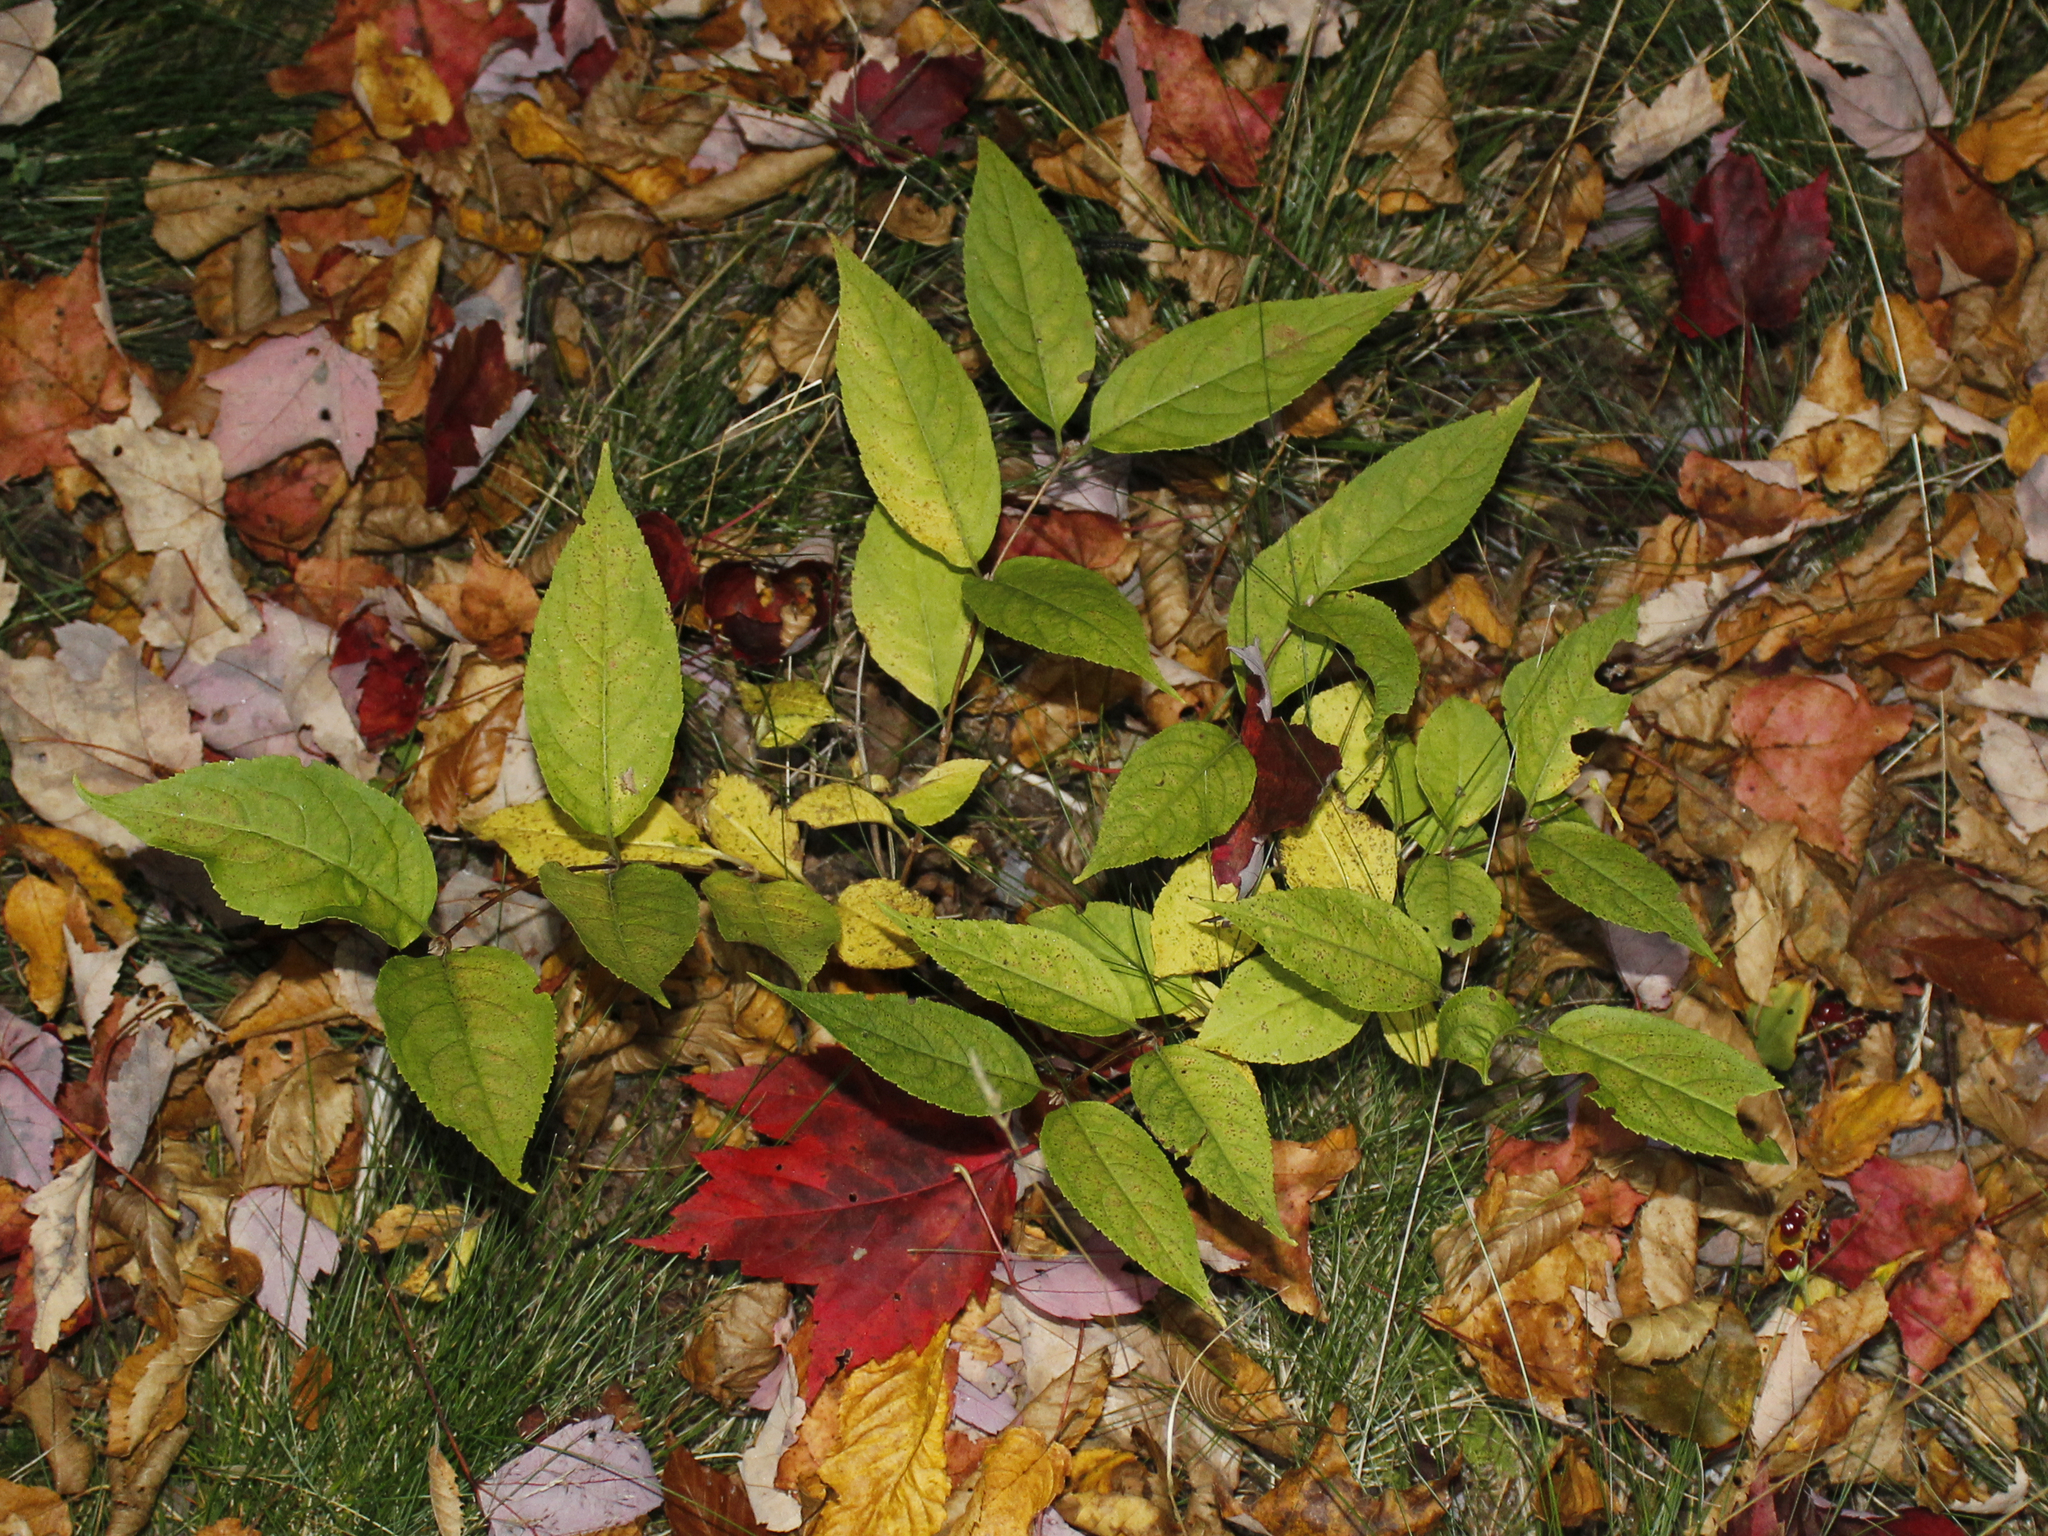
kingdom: Plantae
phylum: Tracheophyta
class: Magnoliopsida
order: Dipsacales
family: Caprifoliaceae
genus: Diervilla
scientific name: Diervilla lonicera
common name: Bush-honeysuckle
